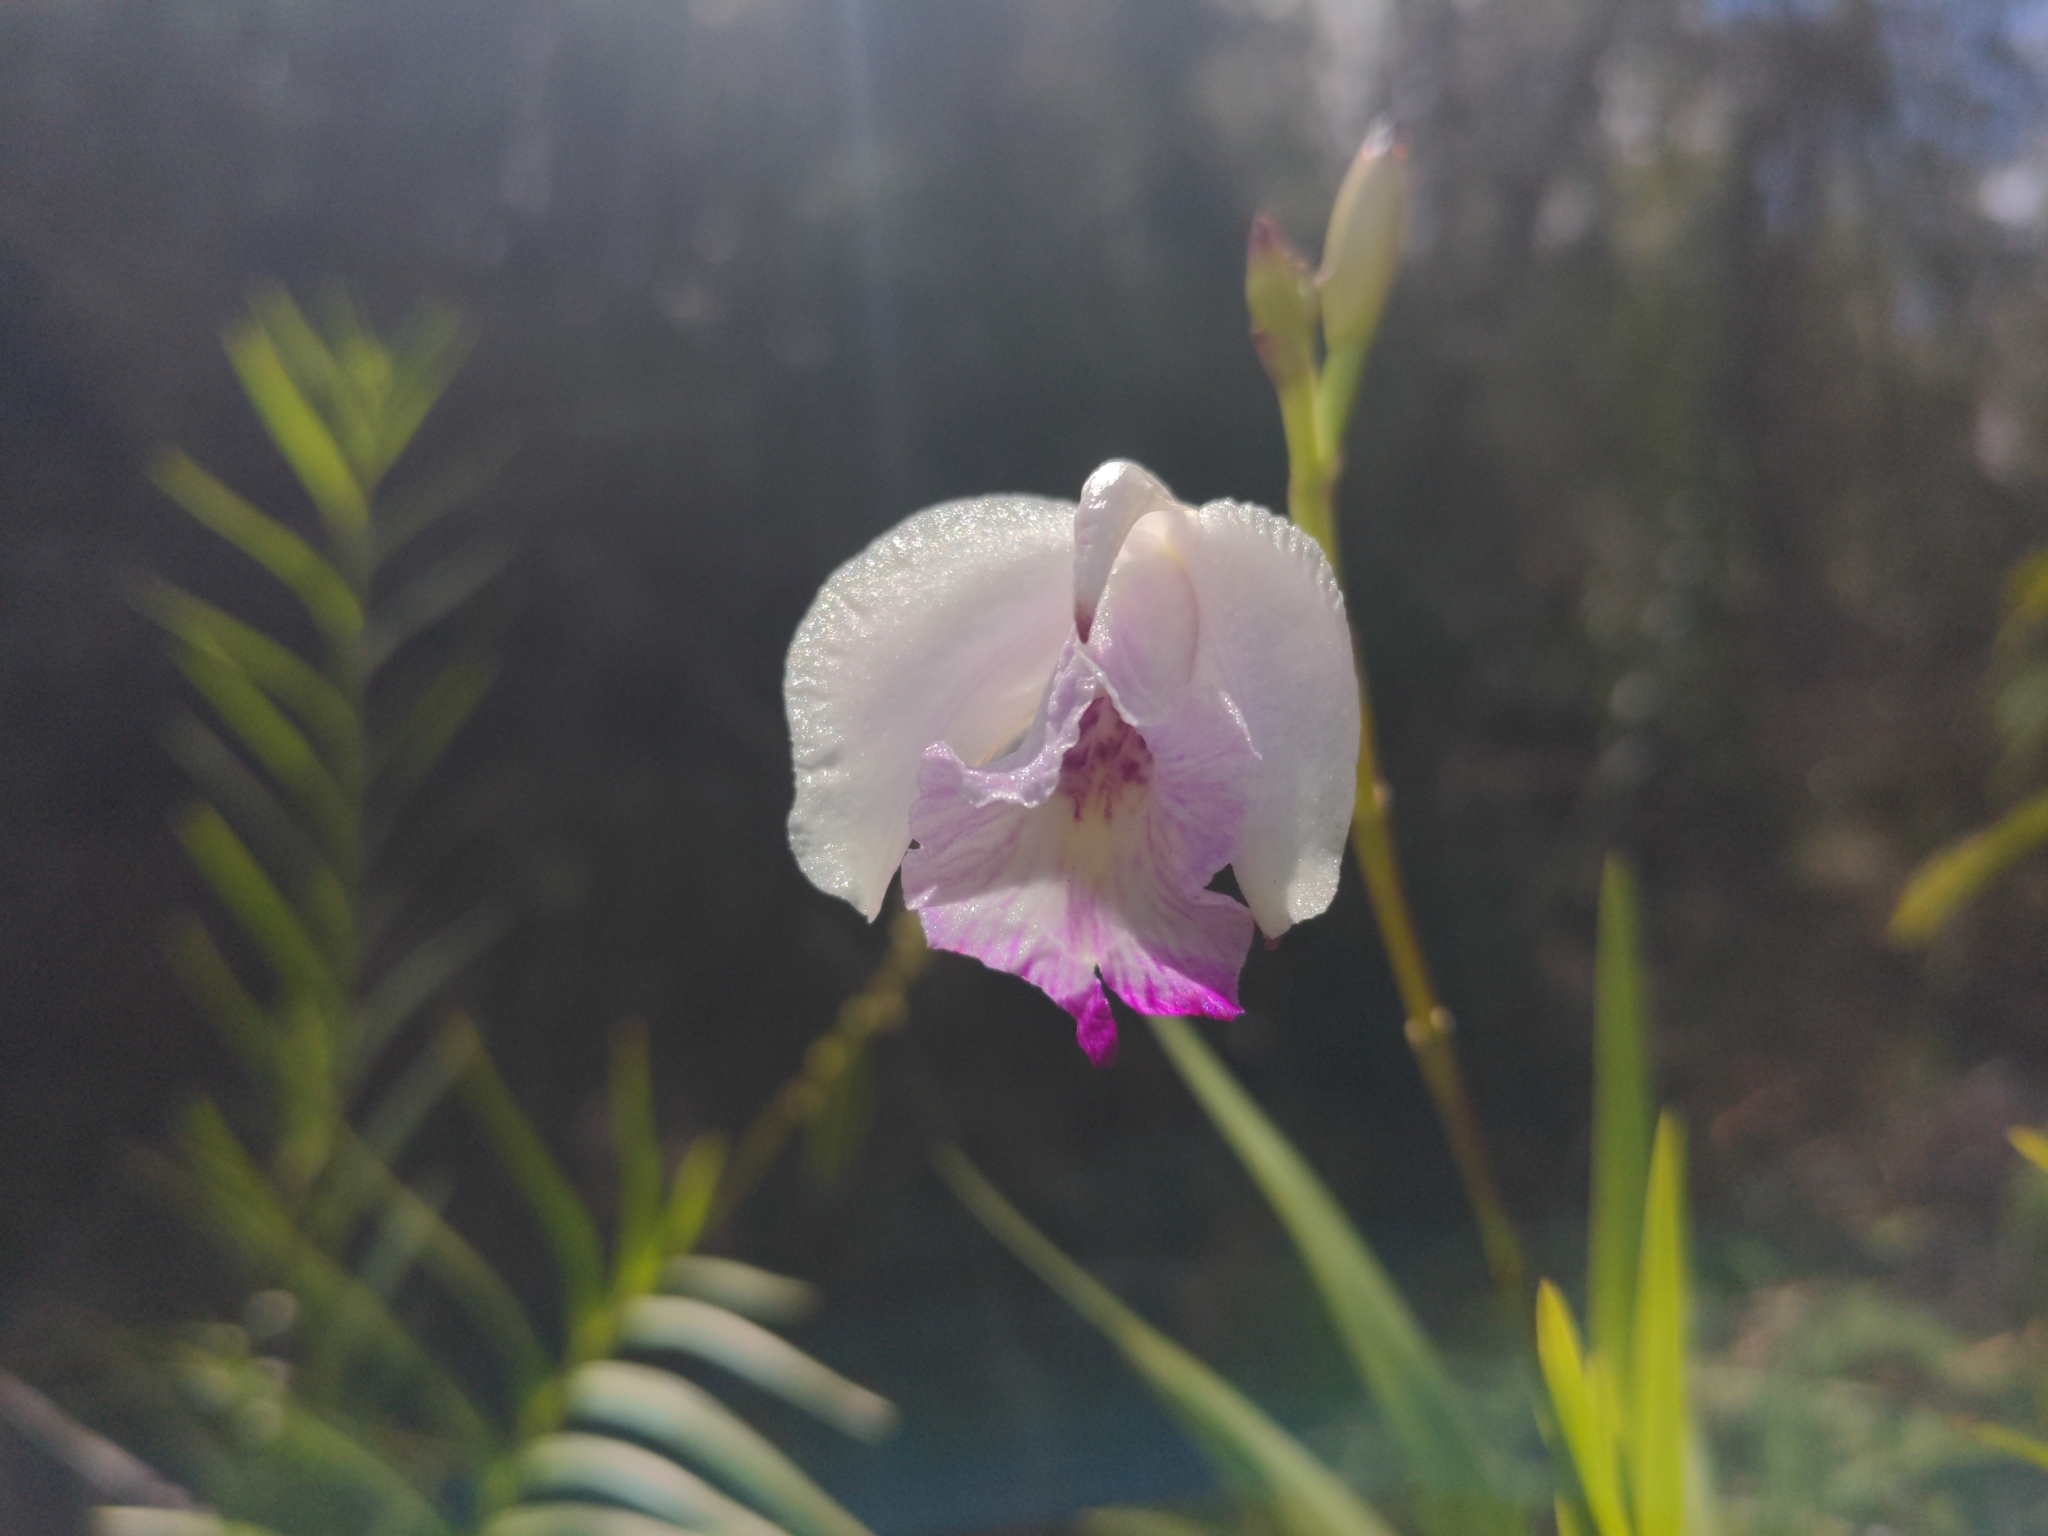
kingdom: Plantae
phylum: Tracheophyta
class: Liliopsida
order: Asparagales
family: Orchidaceae
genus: Arundina
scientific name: Arundina graminifolia
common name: Bamboo orchid
